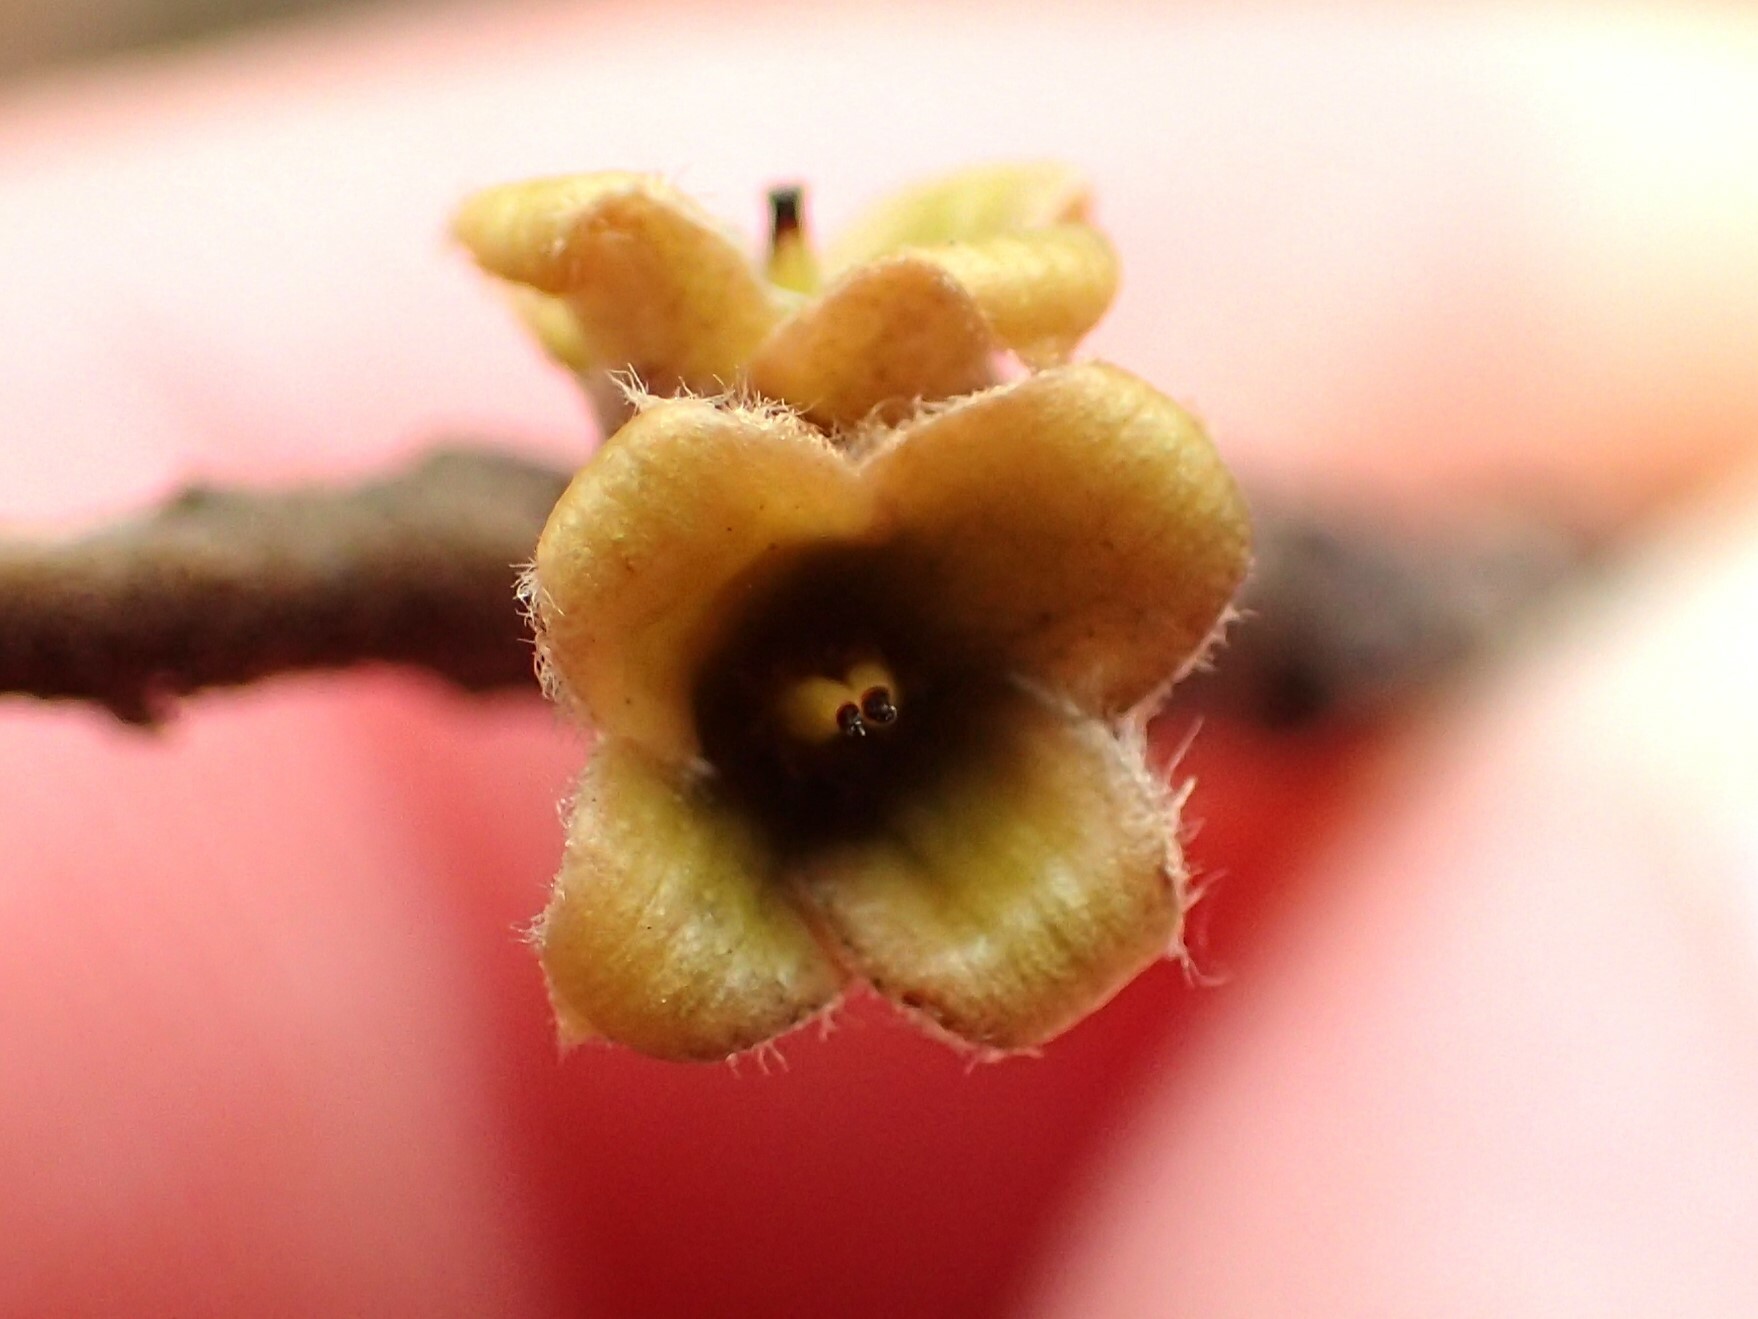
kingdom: Plantae
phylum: Tracheophyta
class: Magnoliopsida
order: Saxifragales
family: Hamamelidaceae
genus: Hamamelis
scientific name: Hamamelis virginiana
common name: Witch-hazel
